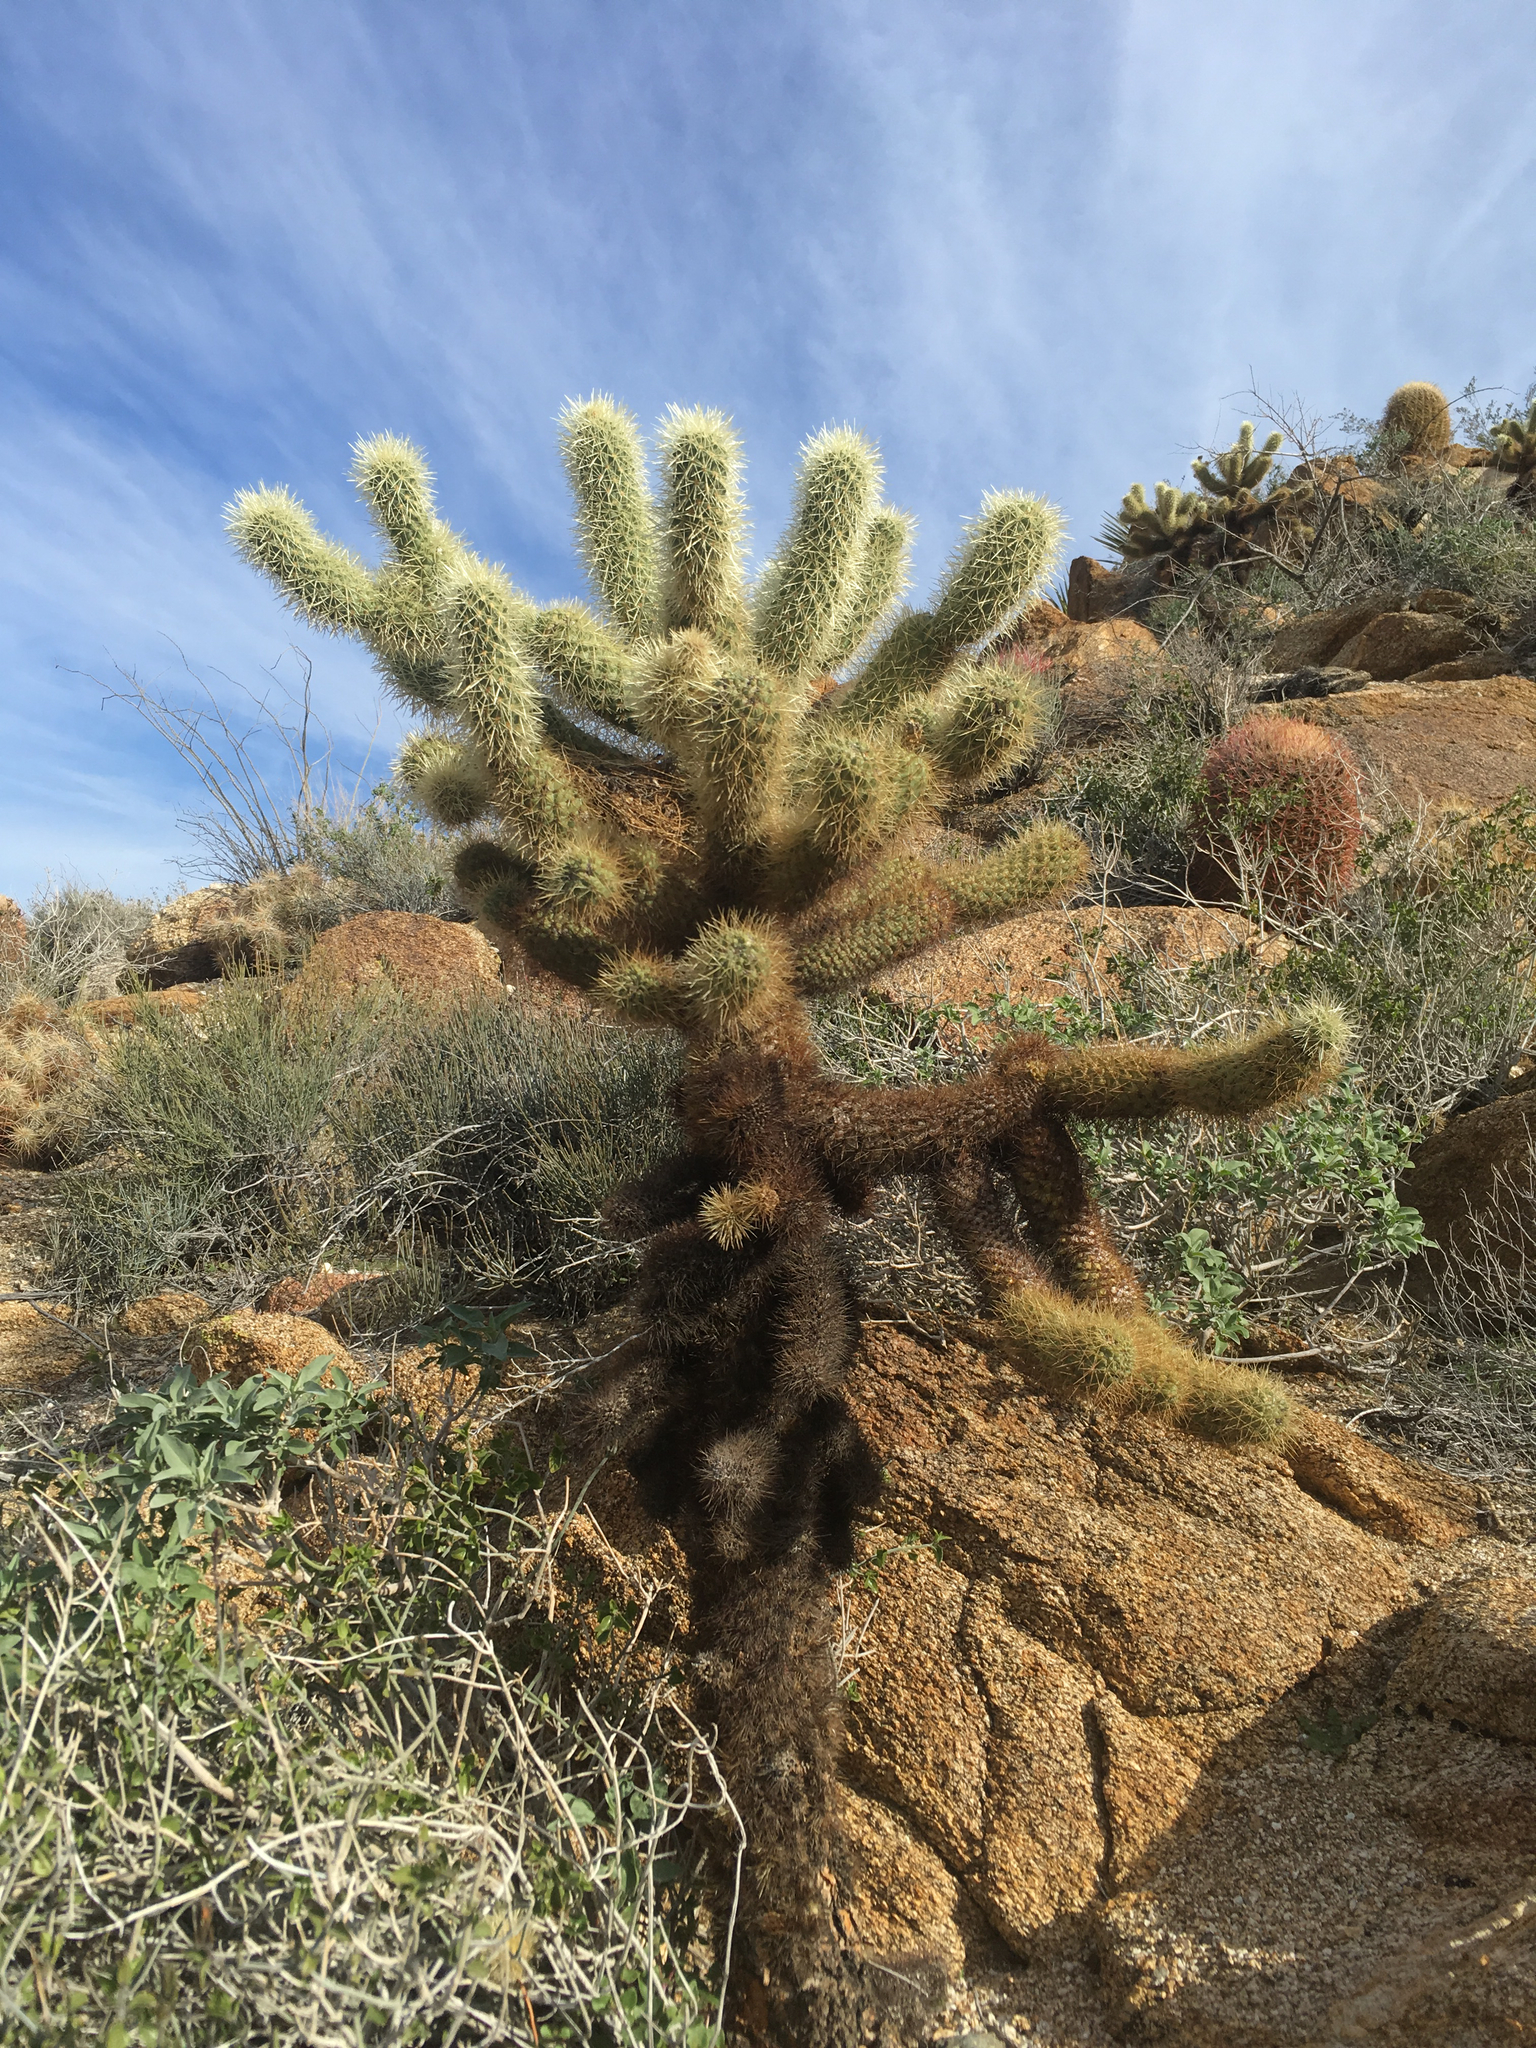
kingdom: Plantae
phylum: Tracheophyta
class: Magnoliopsida
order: Caryophyllales
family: Cactaceae
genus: Cylindropuntia
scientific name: Cylindropuntia fosbergii
